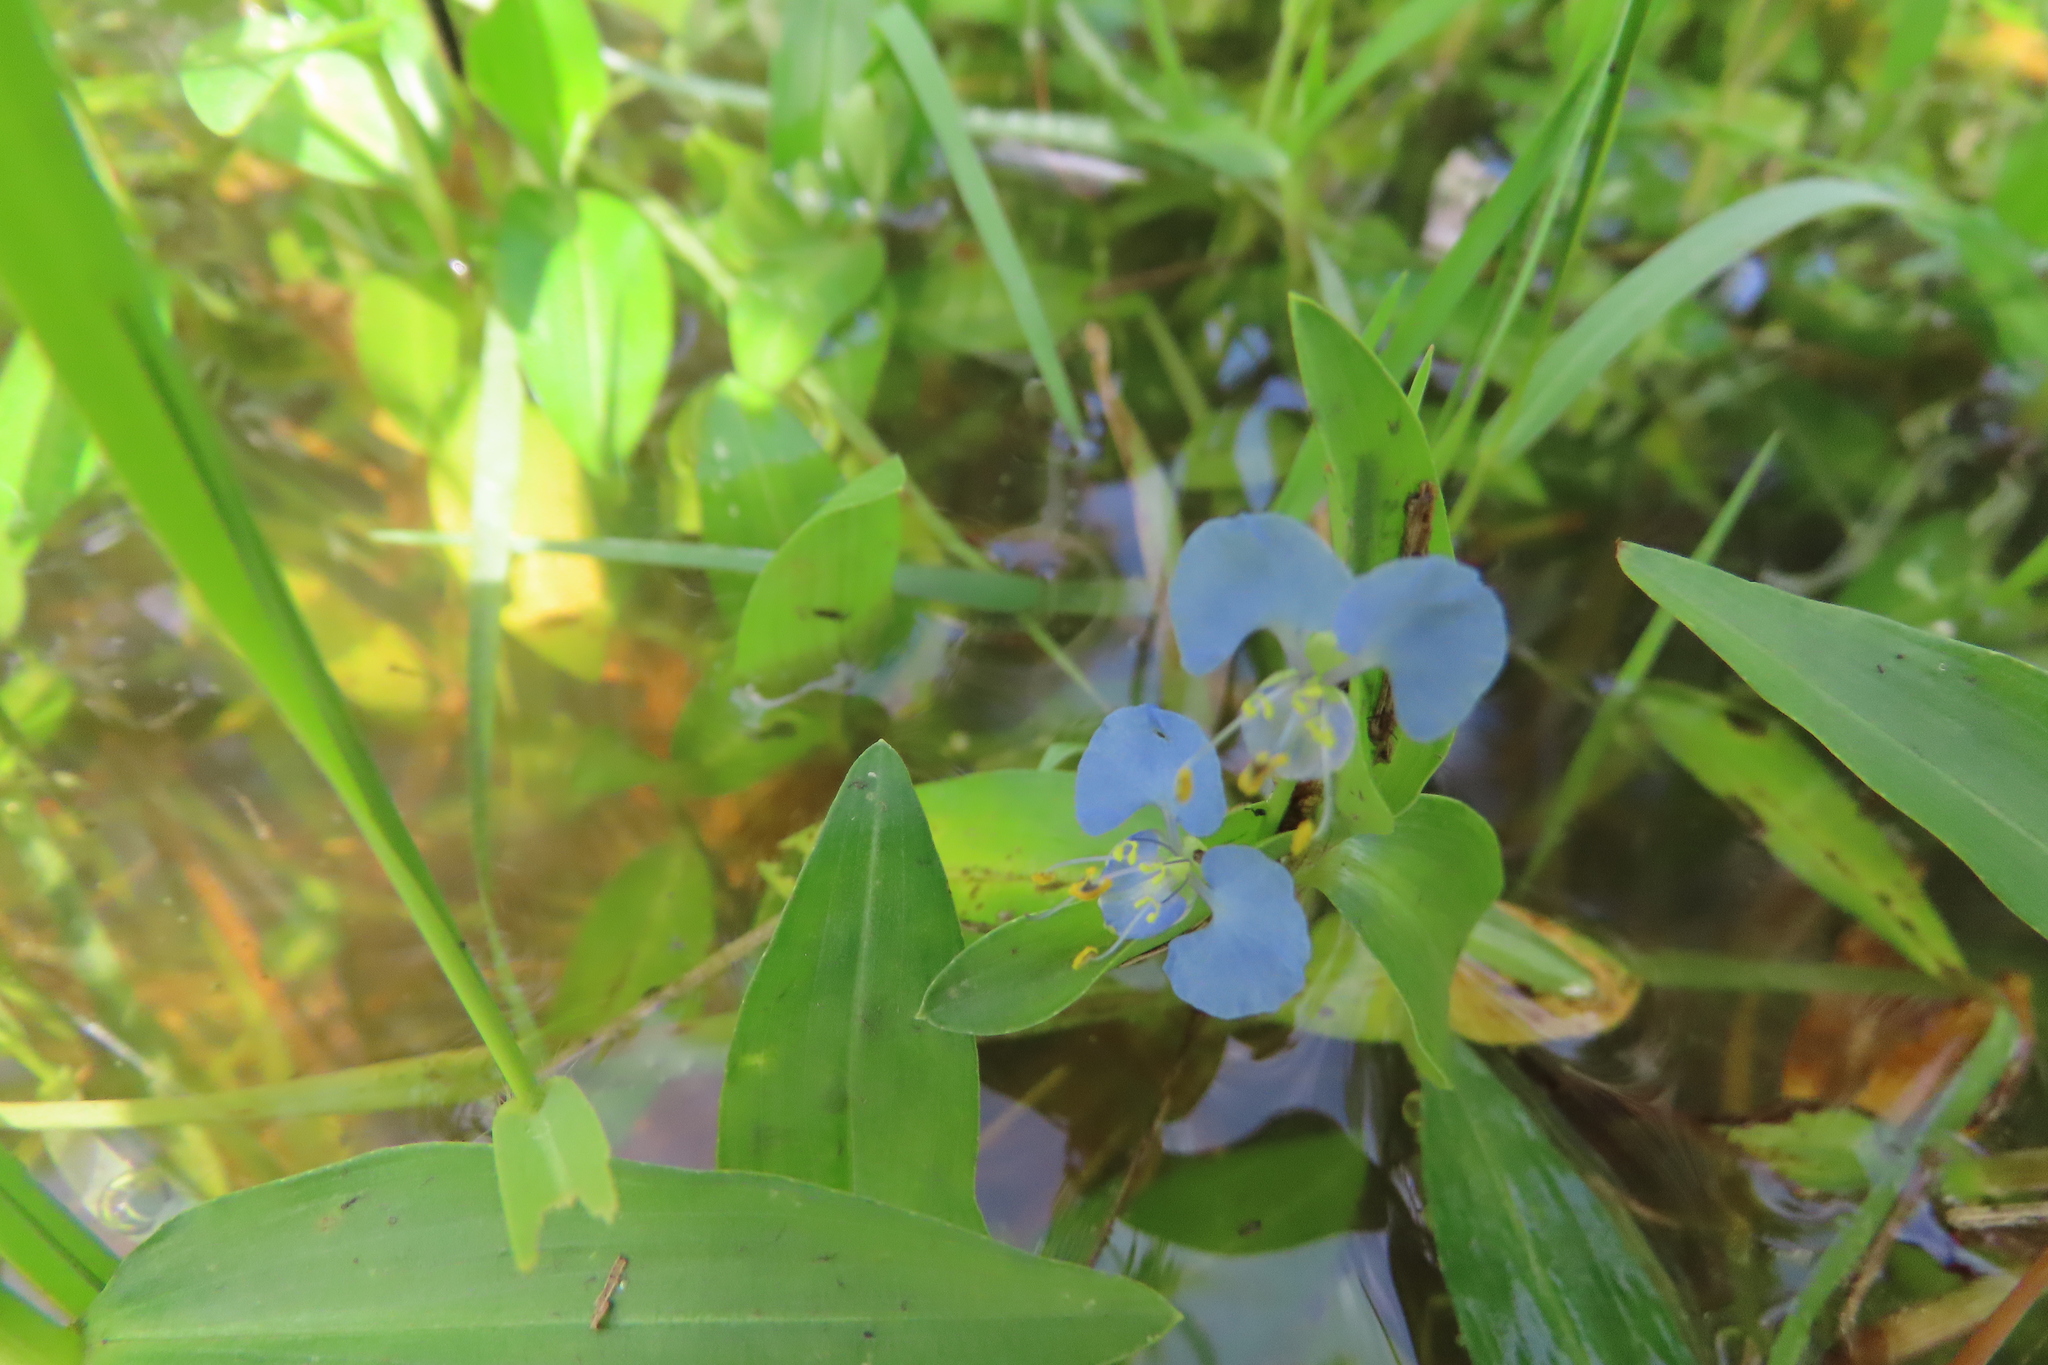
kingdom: Plantae
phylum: Tracheophyta
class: Liliopsida
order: Commelinales
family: Commelinaceae
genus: Commelina
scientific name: Commelina diffusa
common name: Climbing dayflower
